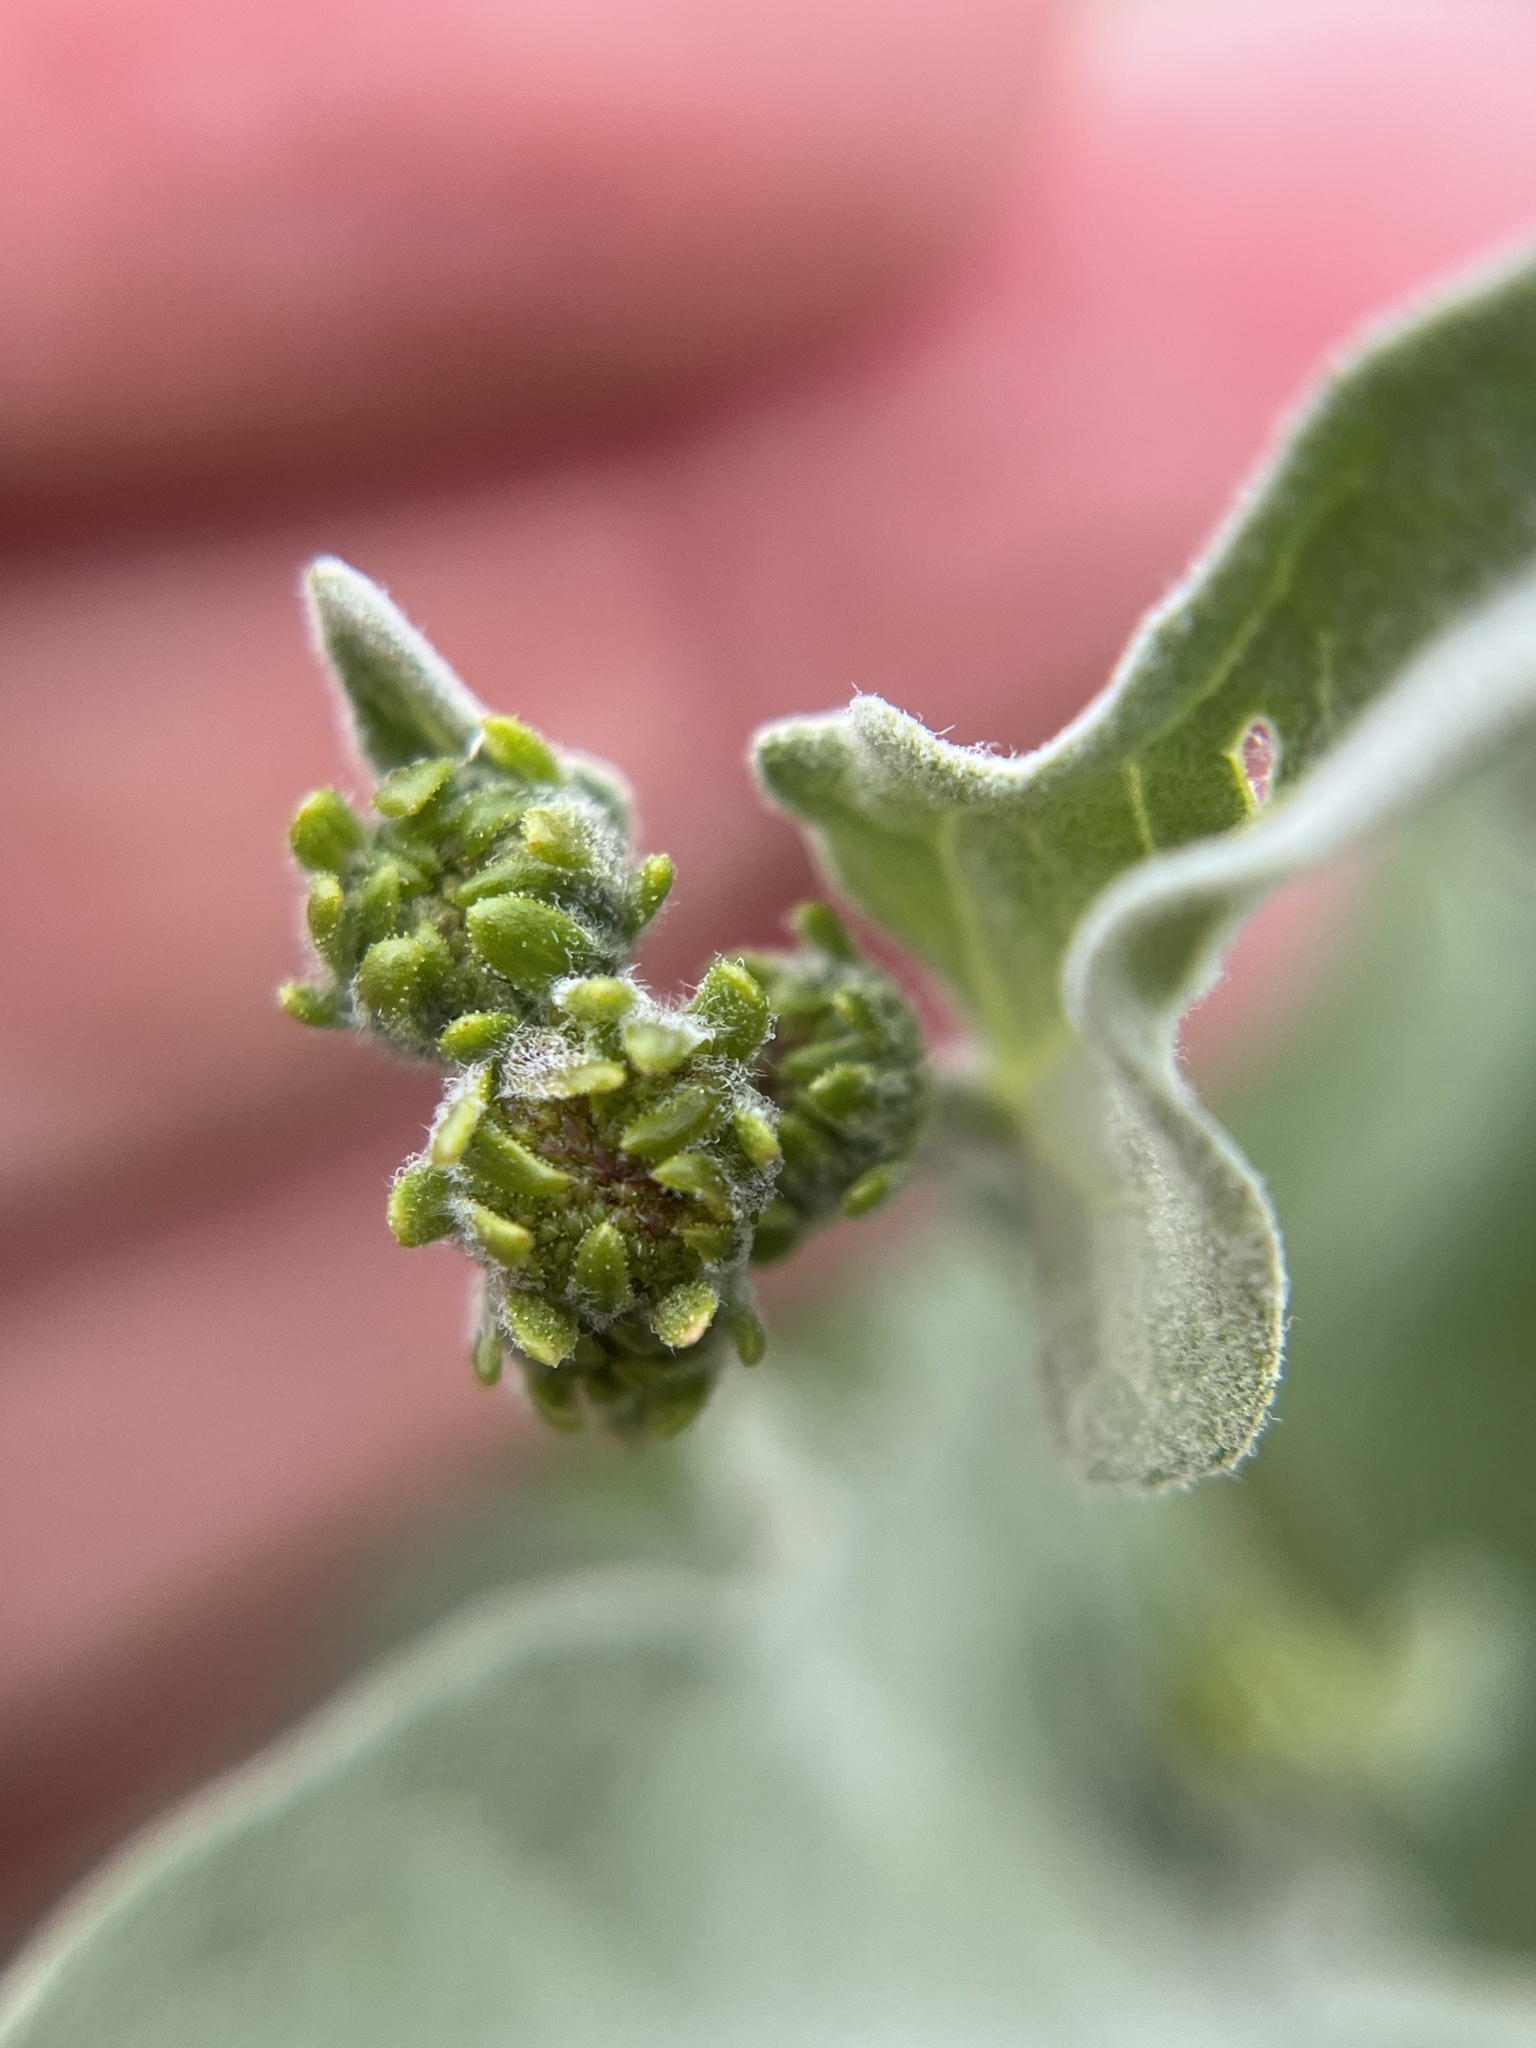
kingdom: Plantae
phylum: Tracheophyta
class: Magnoliopsida
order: Asterales
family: Asteraceae
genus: Encelia
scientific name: Encelia farinosa
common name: Brittlebush
